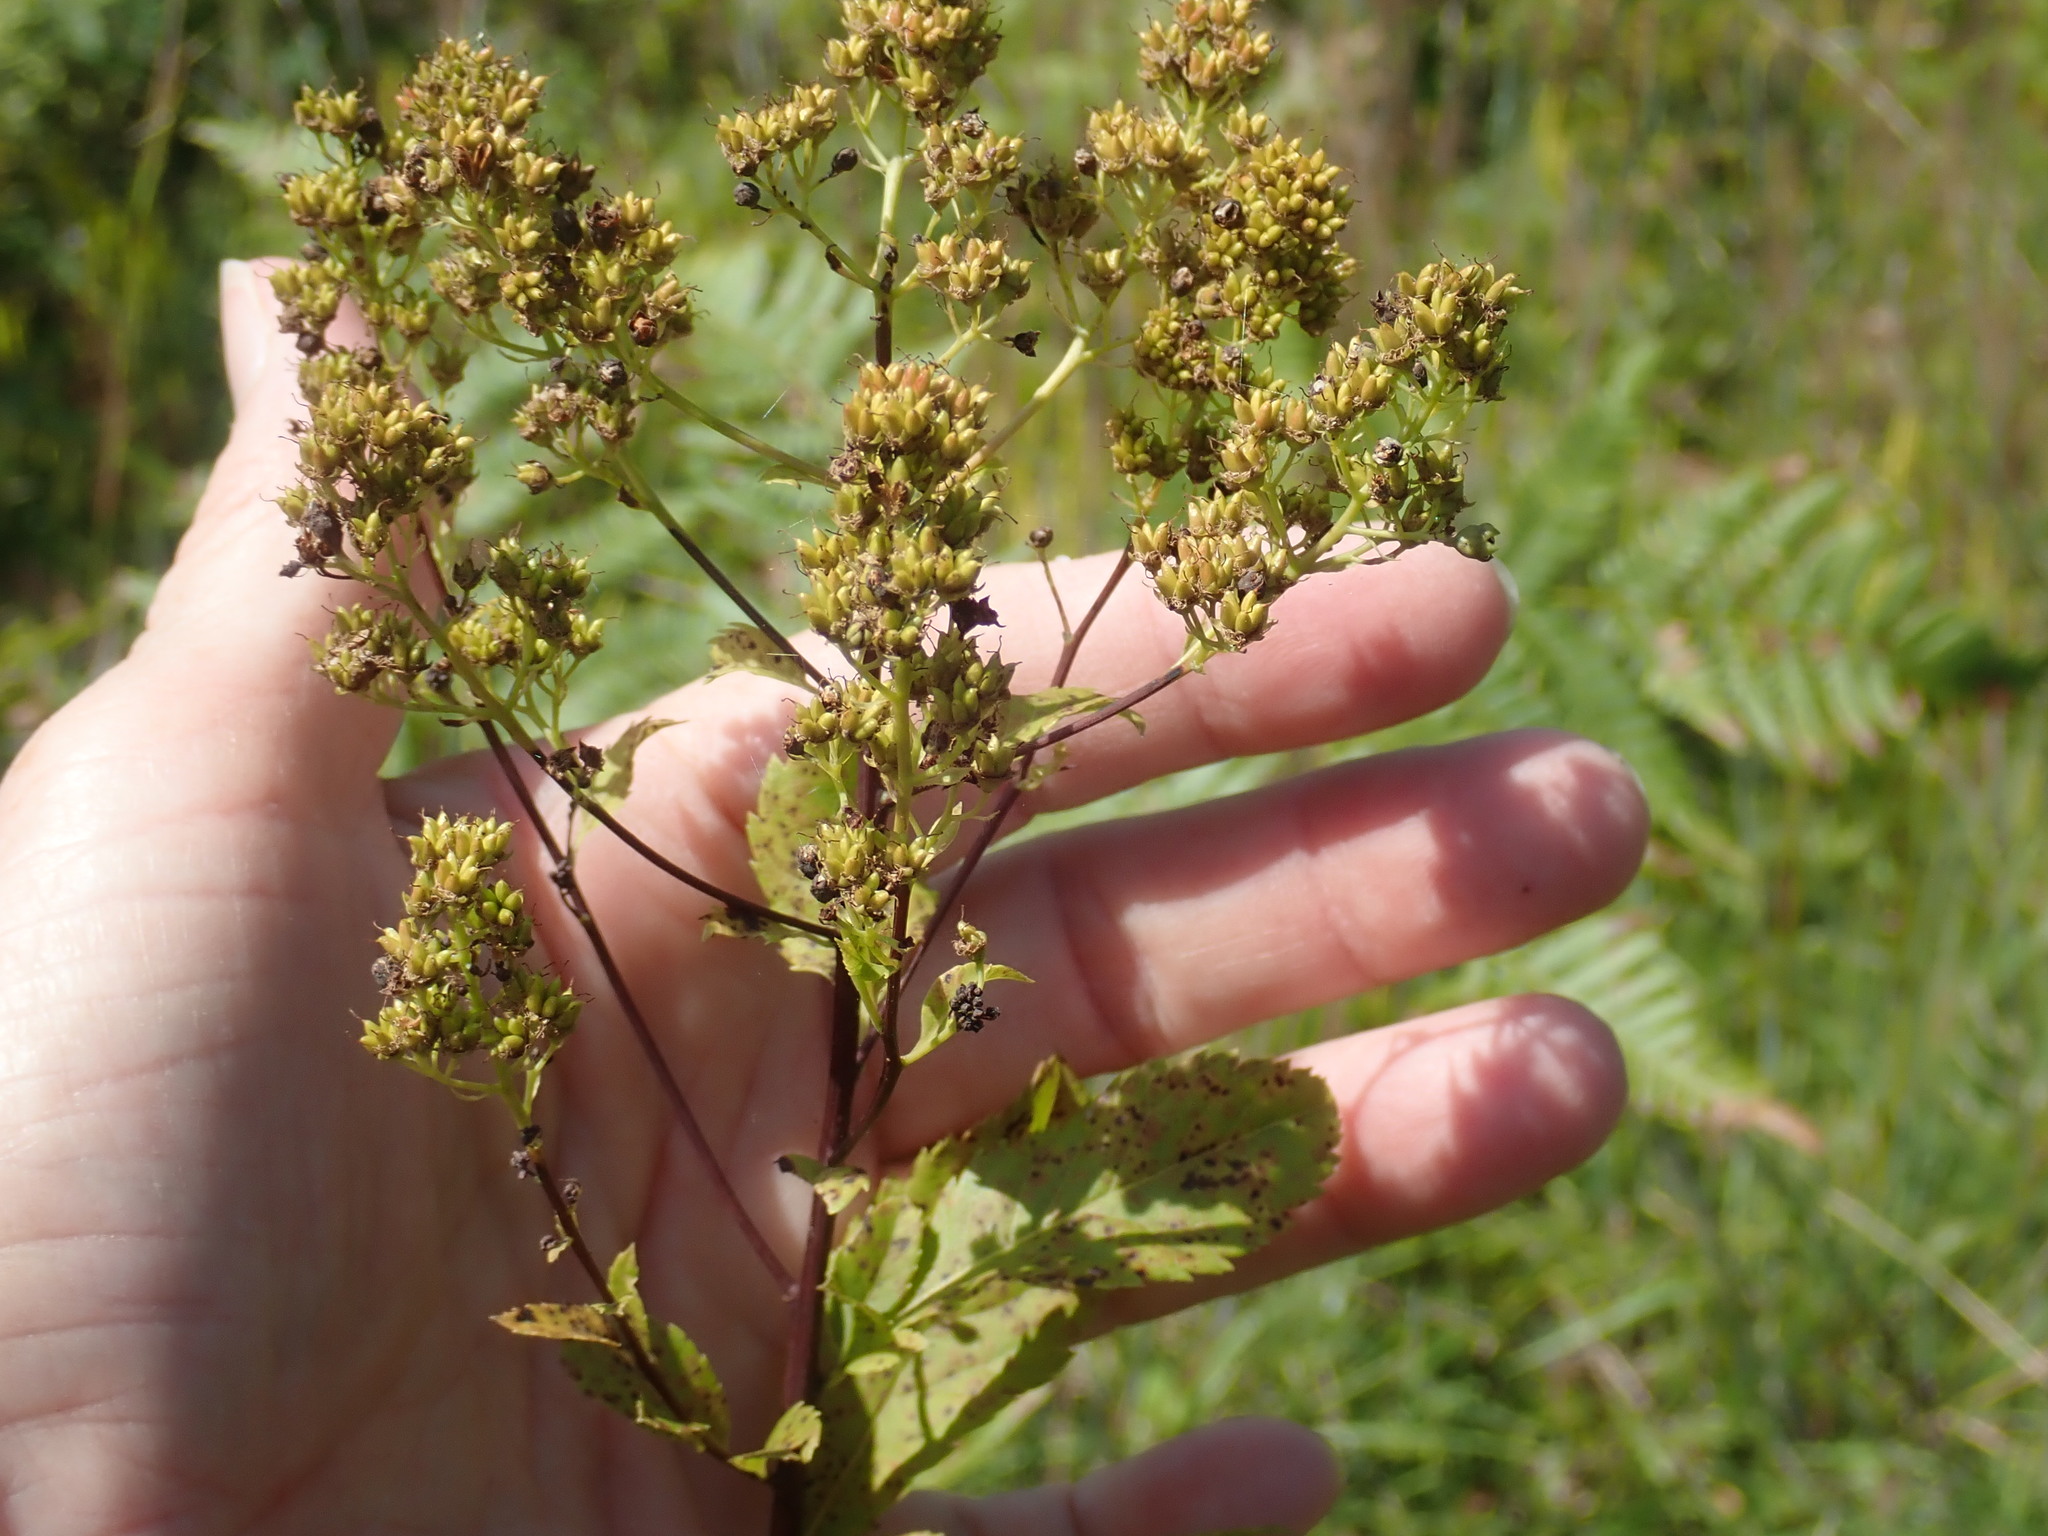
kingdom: Plantae
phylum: Tracheophyta
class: Magnoliopsida
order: Rosales
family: Rosaceae
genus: Spiraea
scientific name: Spiraea alba
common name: Pale bridewort
